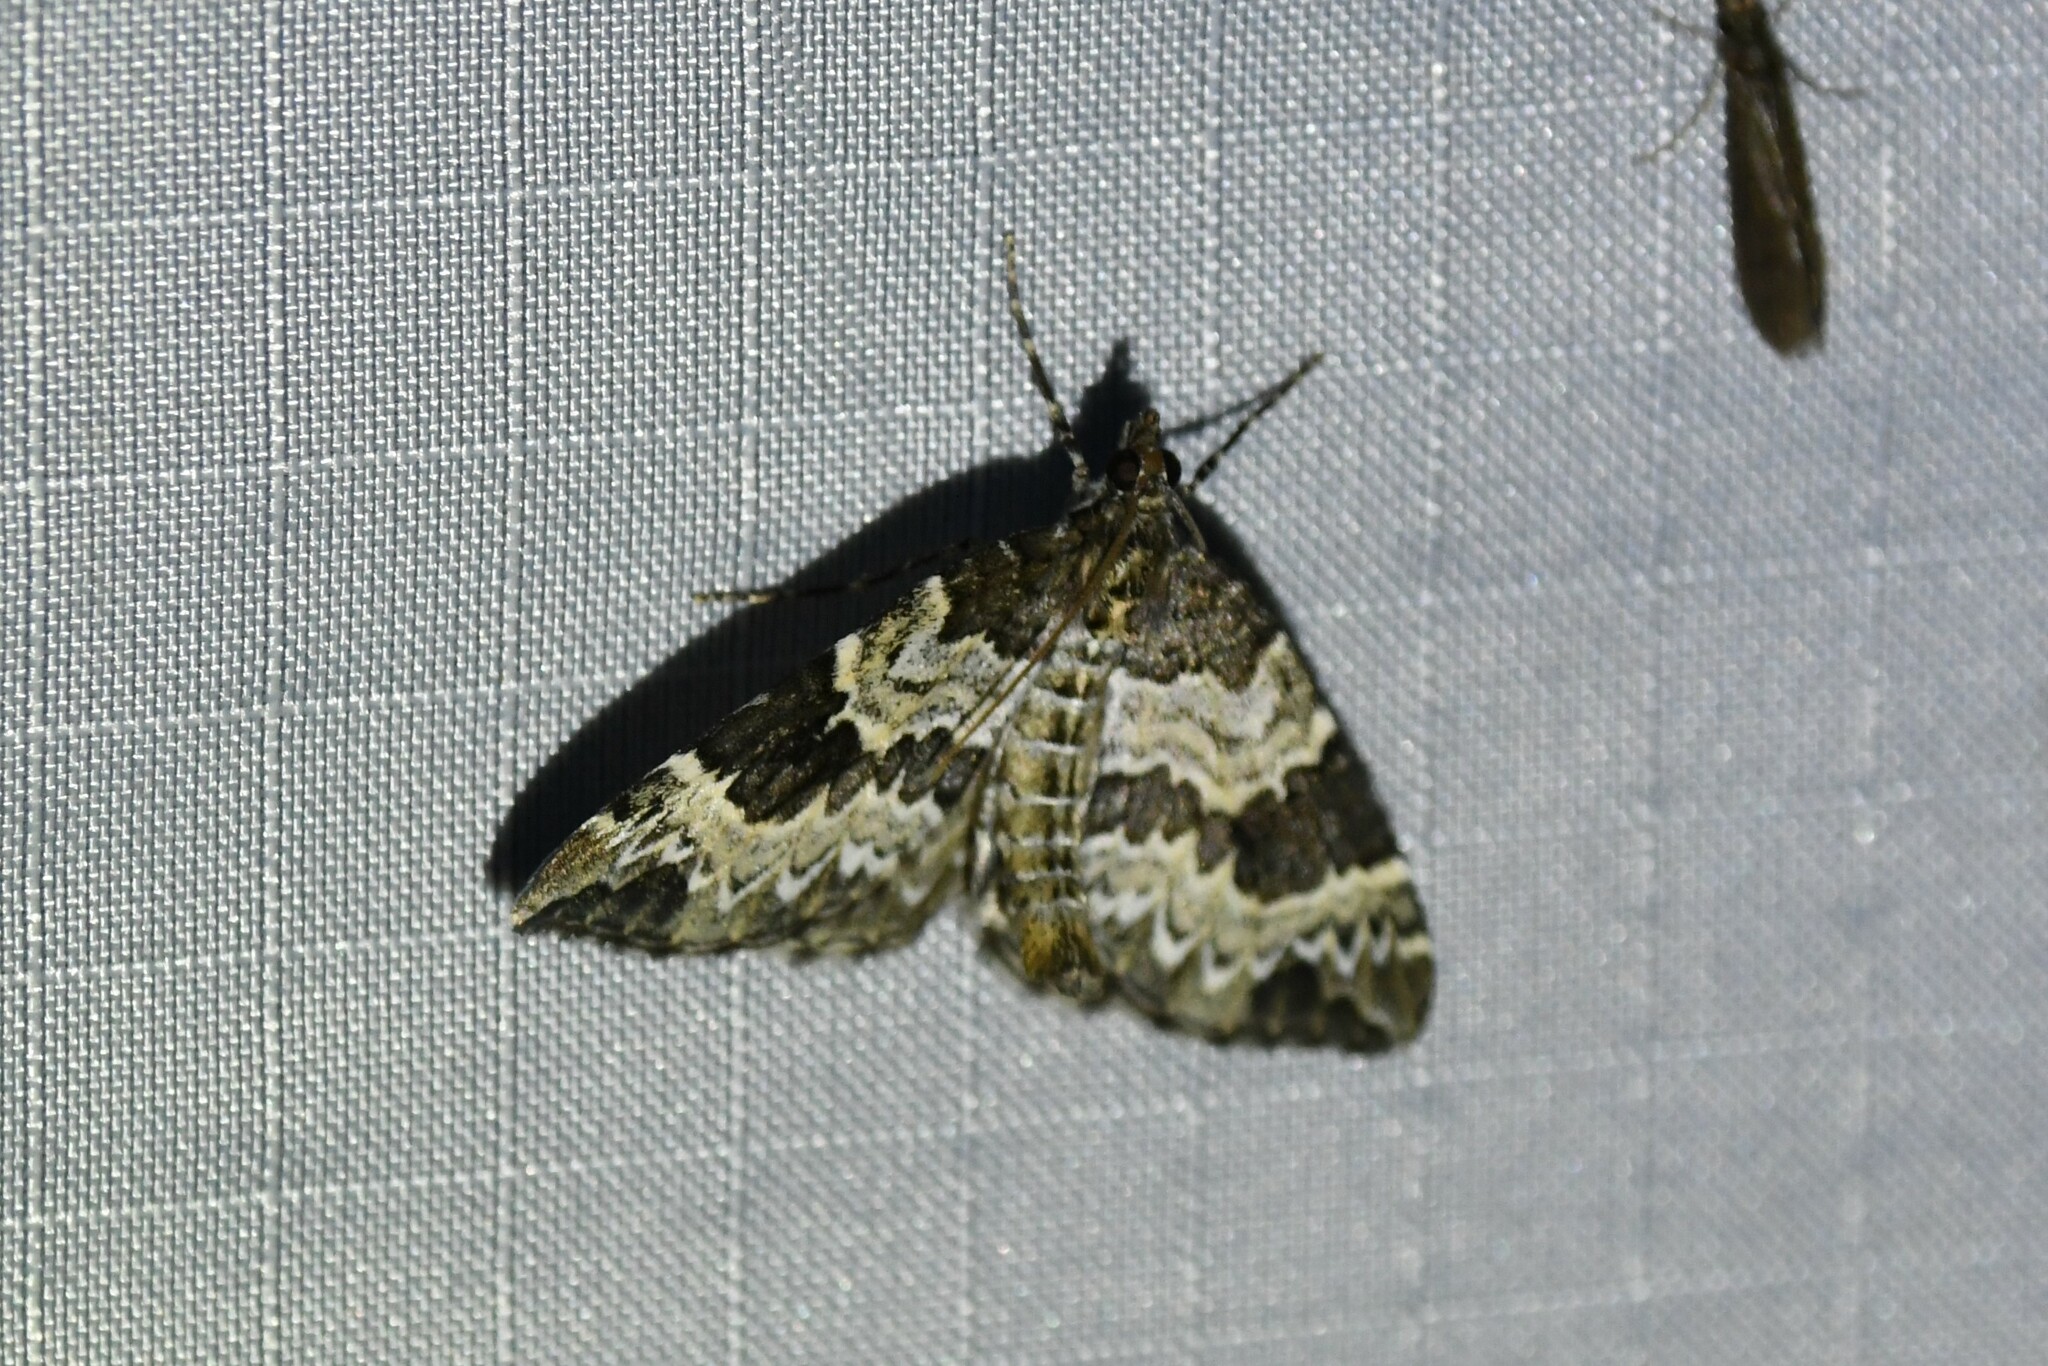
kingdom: Animalia
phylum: Arthropoda
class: Insecta
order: Lepidoptera
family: Geometridae
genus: Eulithis
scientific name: Eulithis explanata
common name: White eulithis
